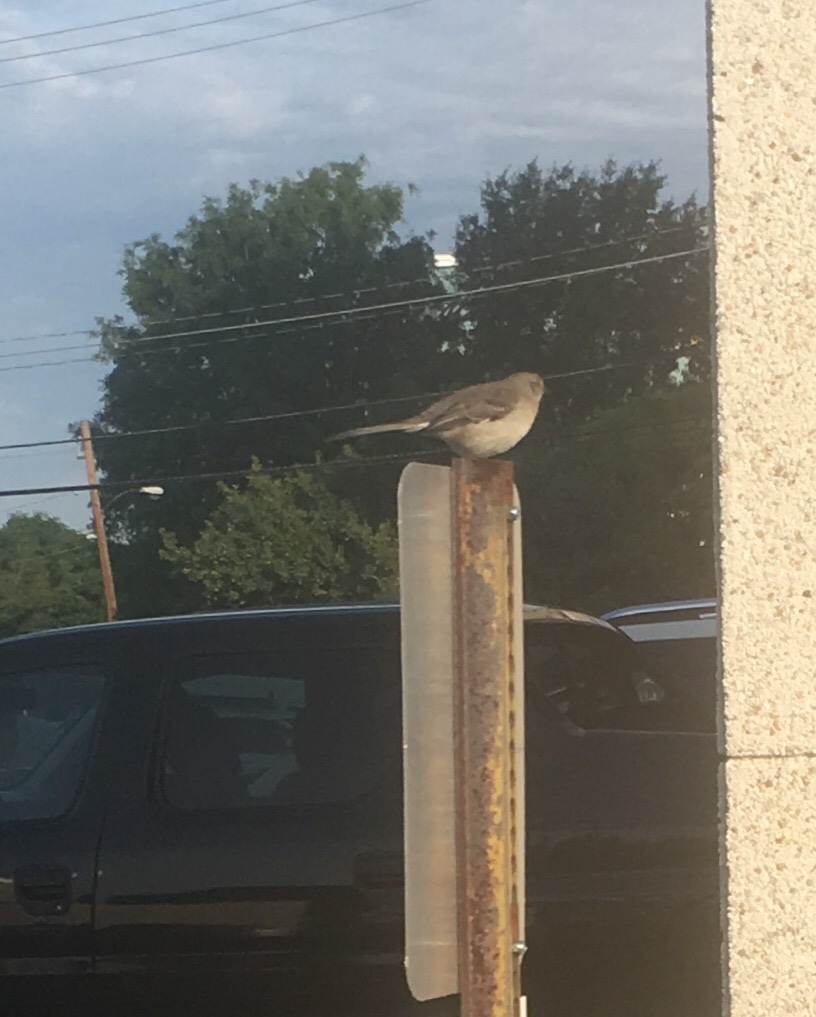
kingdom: Animalia
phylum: Chordata
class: Aves
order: Passeriformes
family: Mimidae
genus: Mimus
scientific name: Mimus polyglottos
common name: Northern mockingbird
